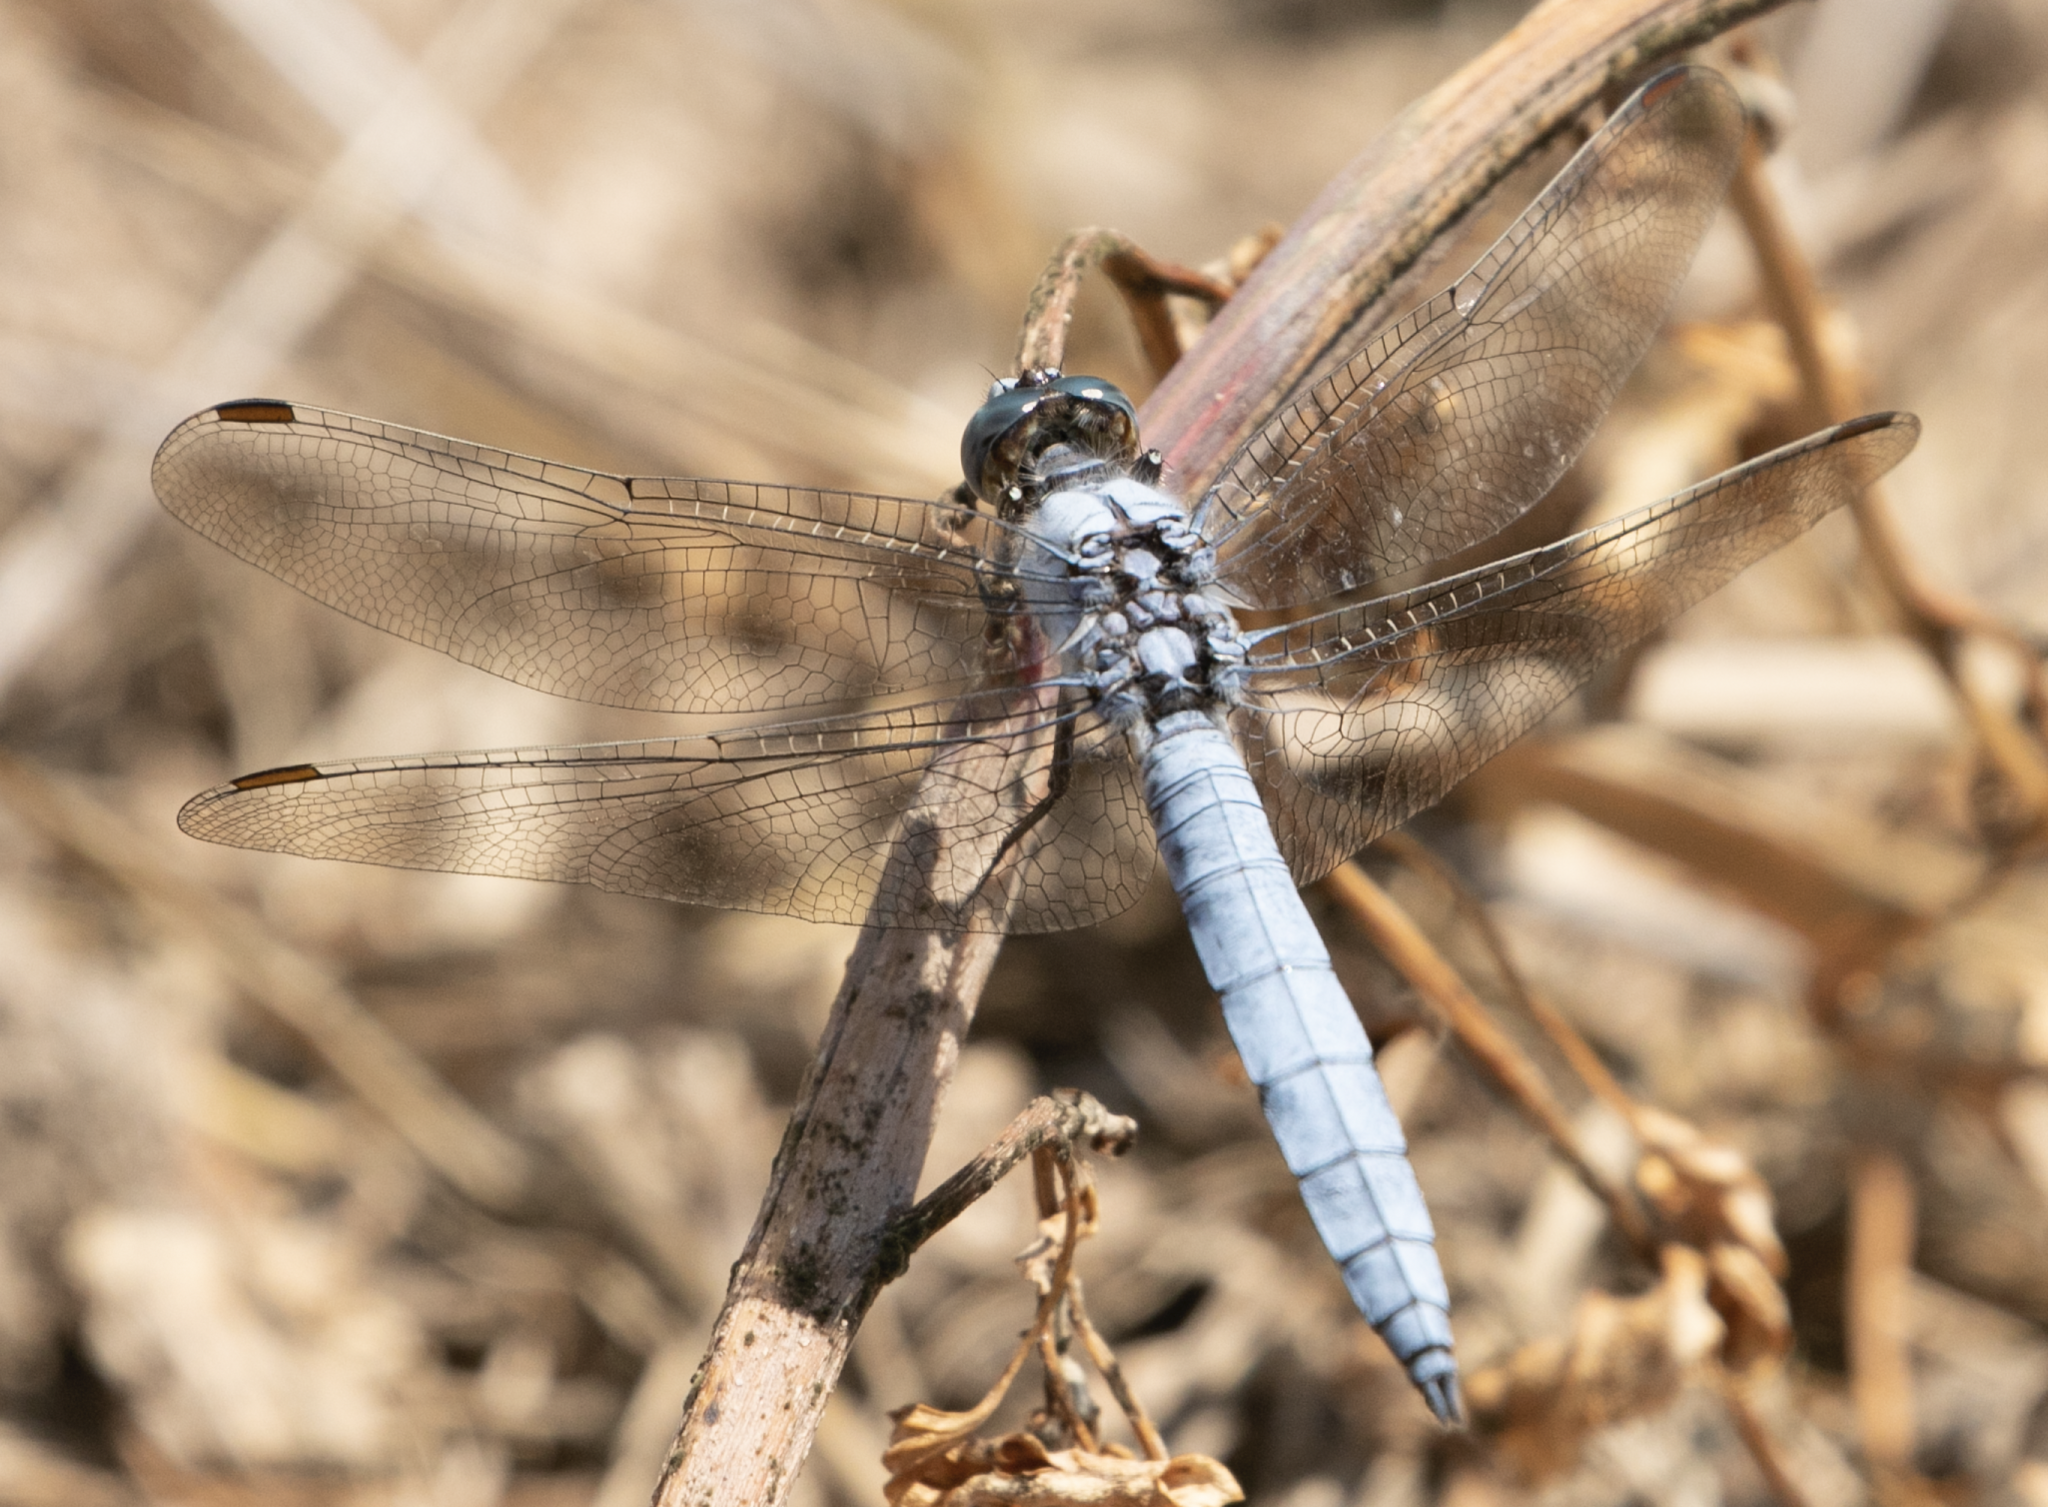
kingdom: Animalia
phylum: Arthropoda
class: Insecta
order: Odonata
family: Libellulidae
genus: Orthetrum
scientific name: Orthetrum brunneum
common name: Southern skimmer
